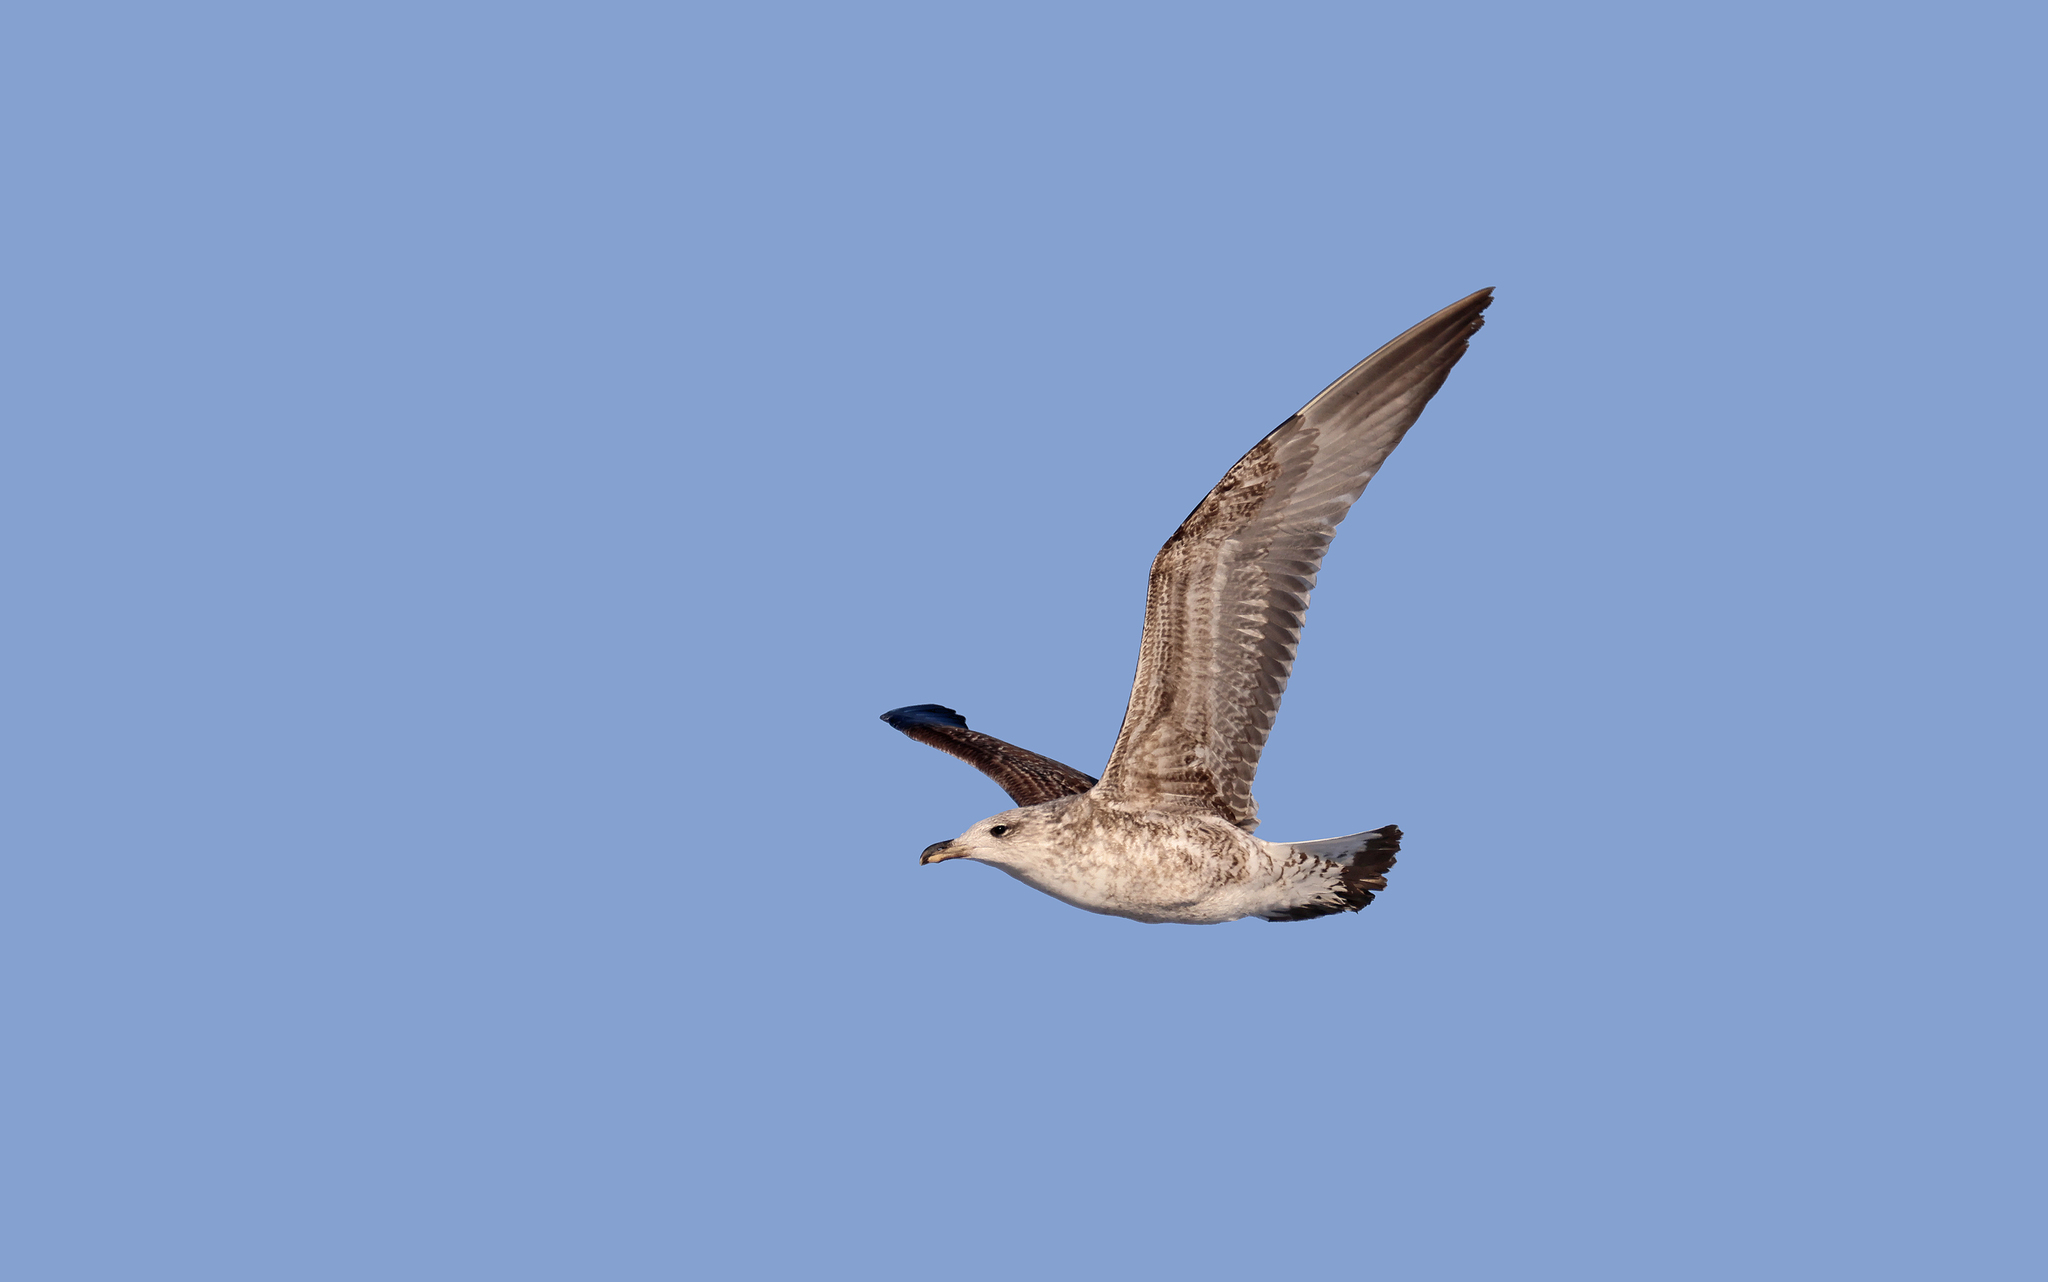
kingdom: Animalia
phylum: Chordata
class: Aves
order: Charadriiformes
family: Laridae
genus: Larus
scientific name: Larus michahellis
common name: Yellow-legged gull
